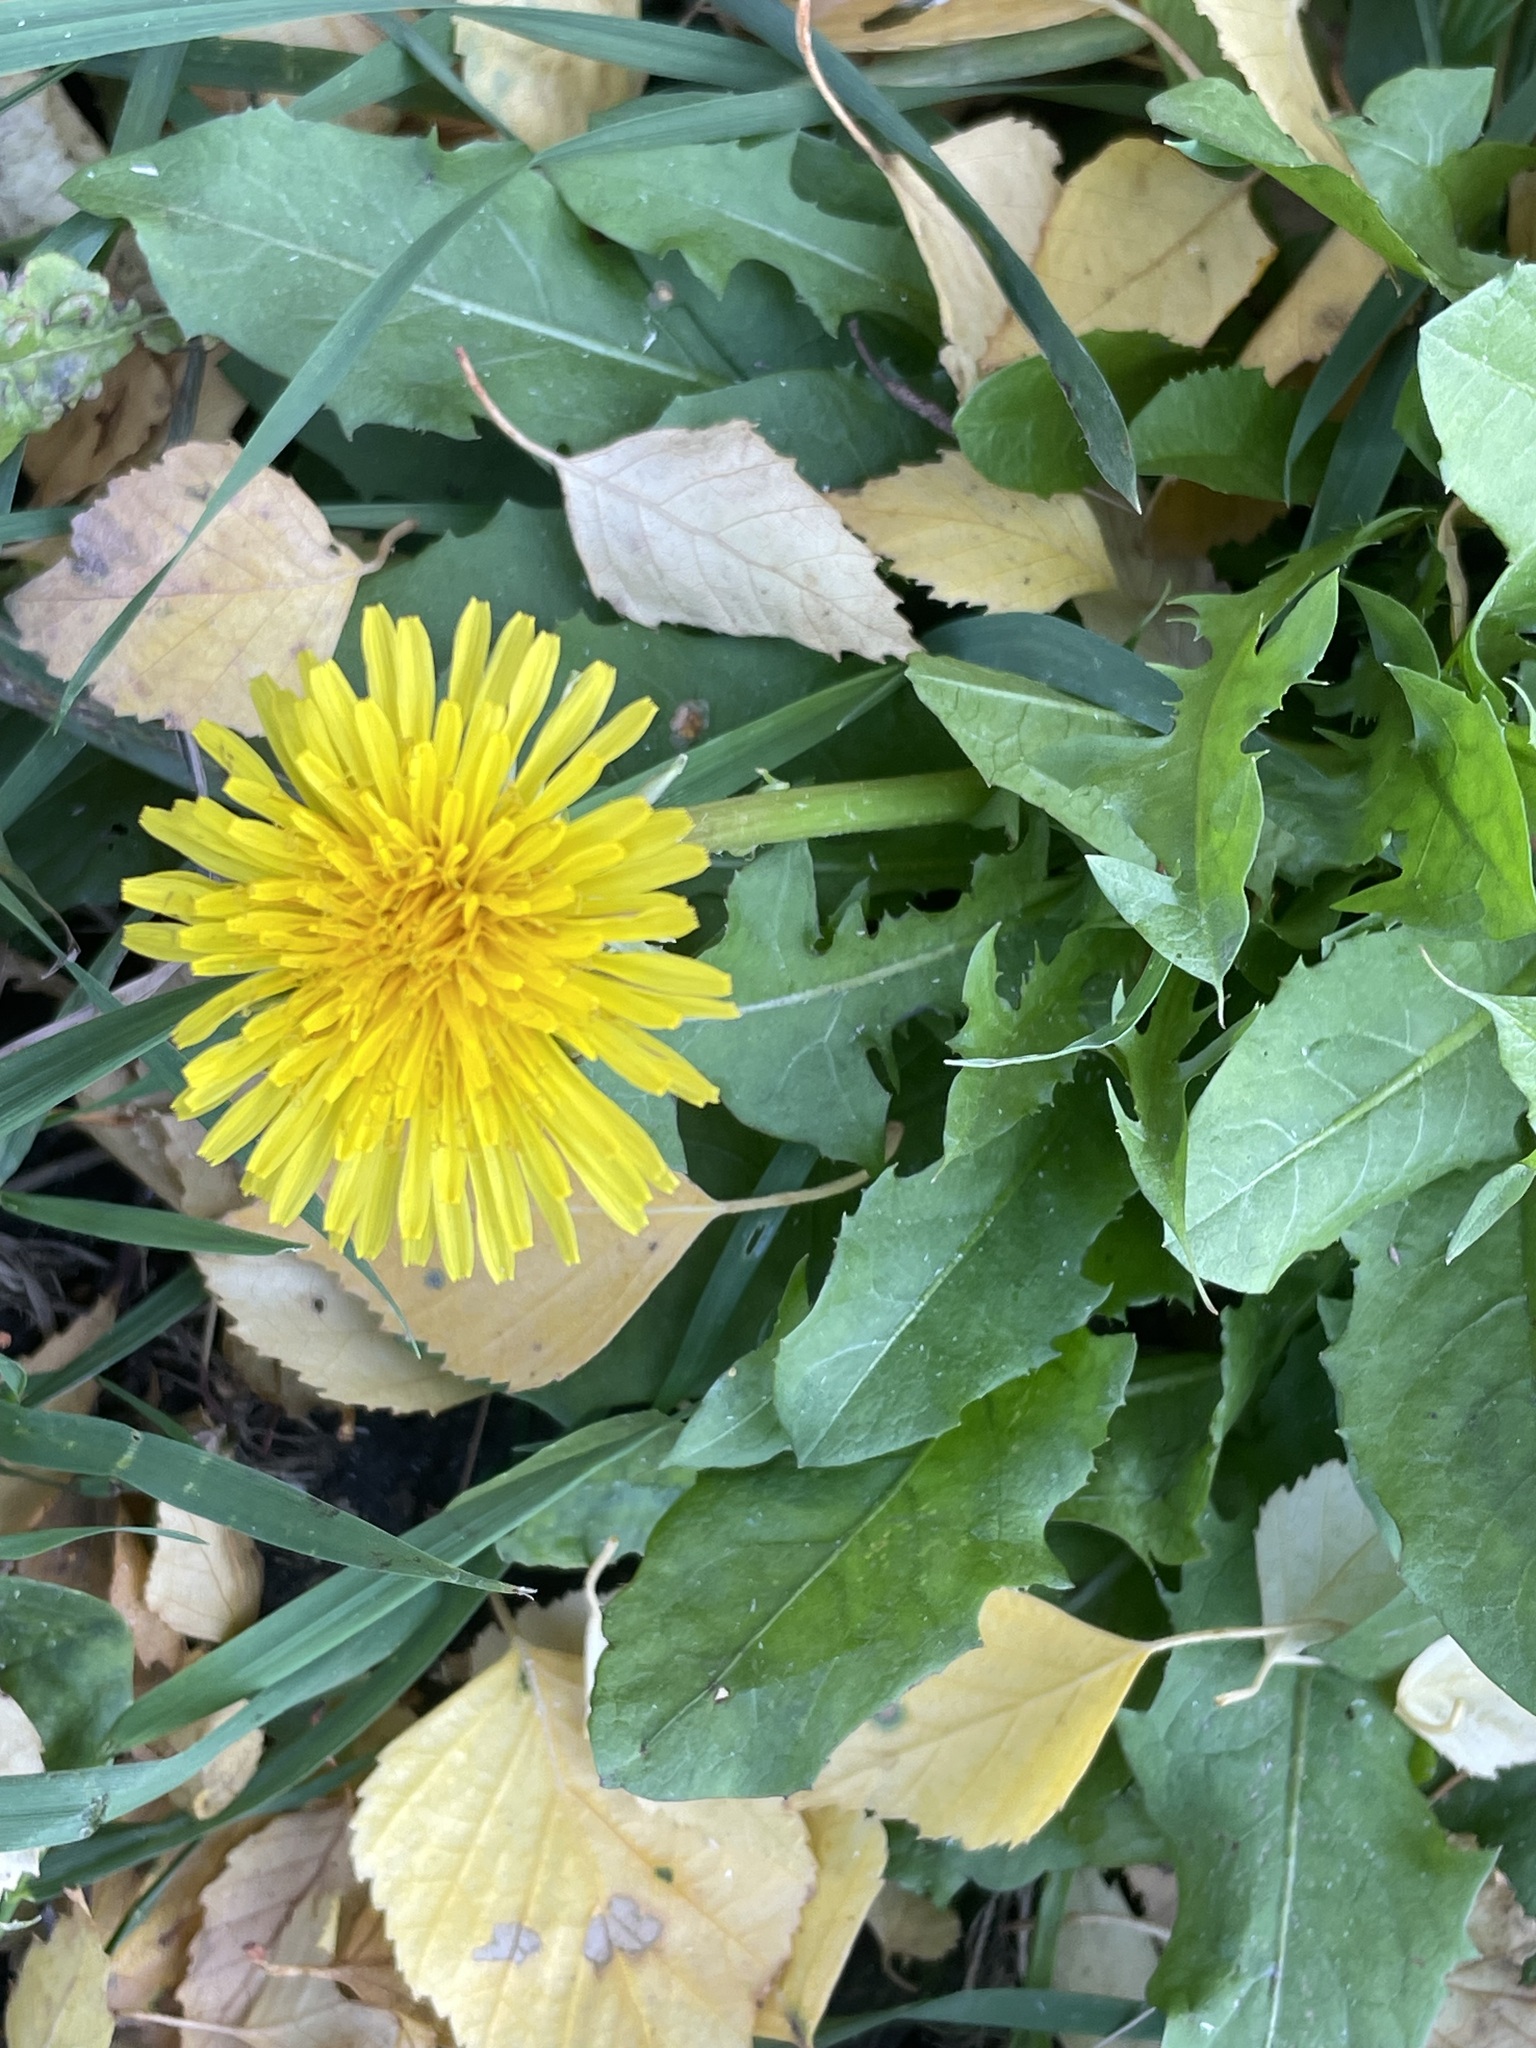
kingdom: Plantae
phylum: Tracheophyta
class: Magnoliopsida
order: Asterales
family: Asteraceae
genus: Taraxacum
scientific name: Taraxacum officinale
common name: Common dandelion
